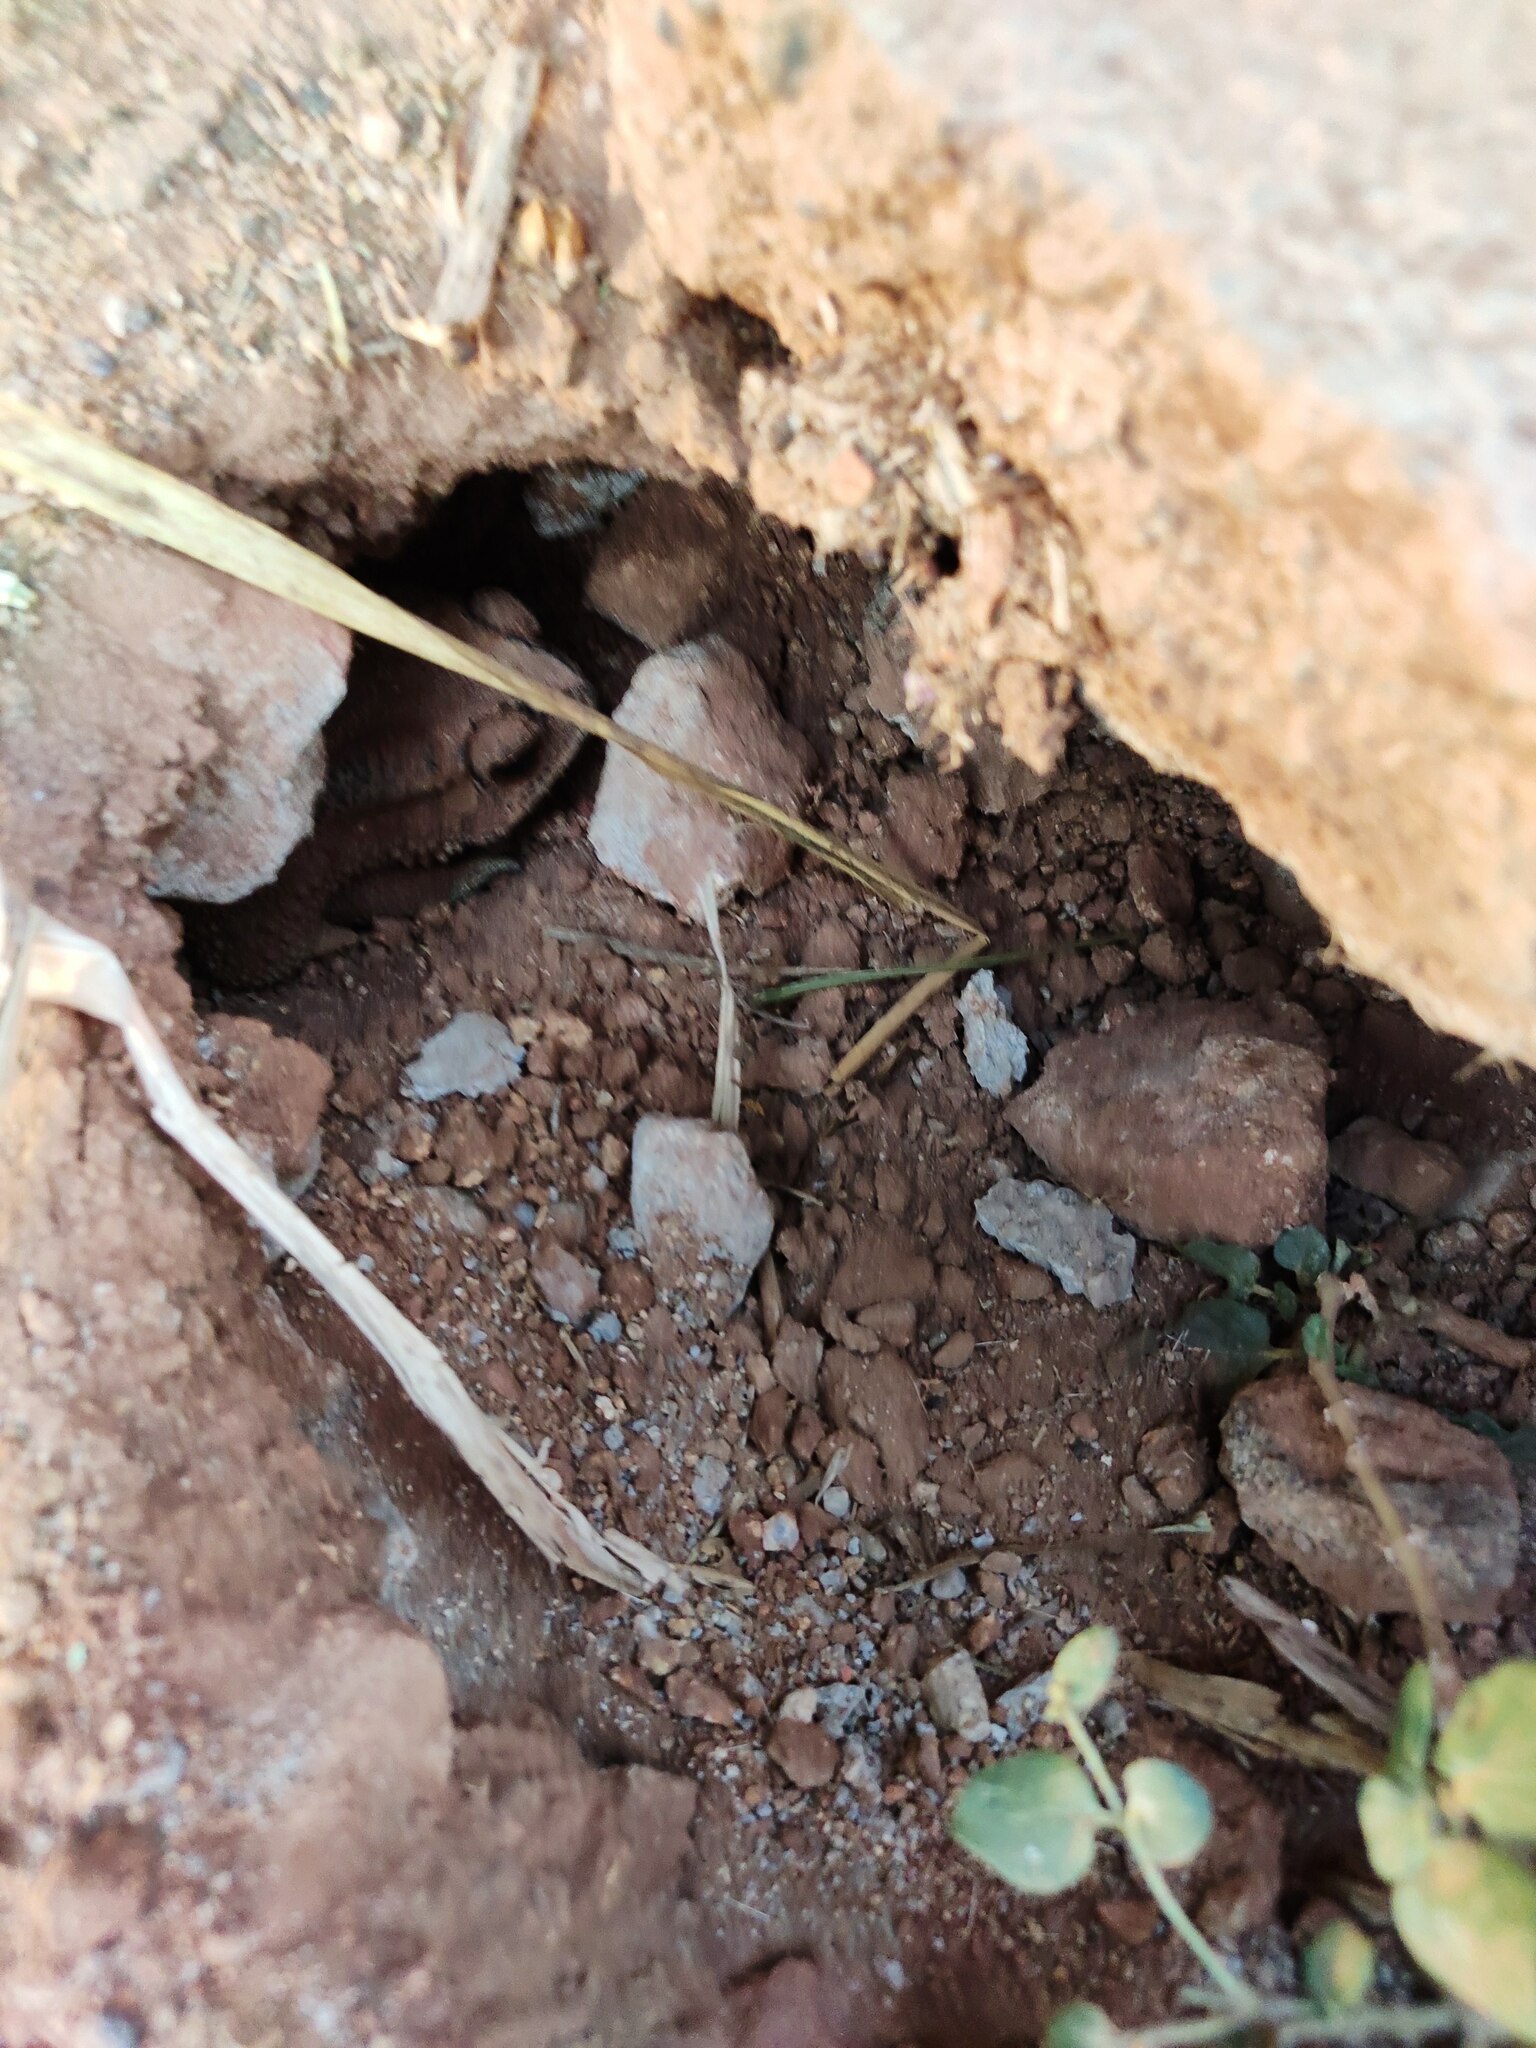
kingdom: Animalia
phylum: Chordata
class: Amphibia
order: Anura
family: Bufonidae
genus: Duttaphrynus
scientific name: Duttaphrynus melanostictus
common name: Common sunda toad
